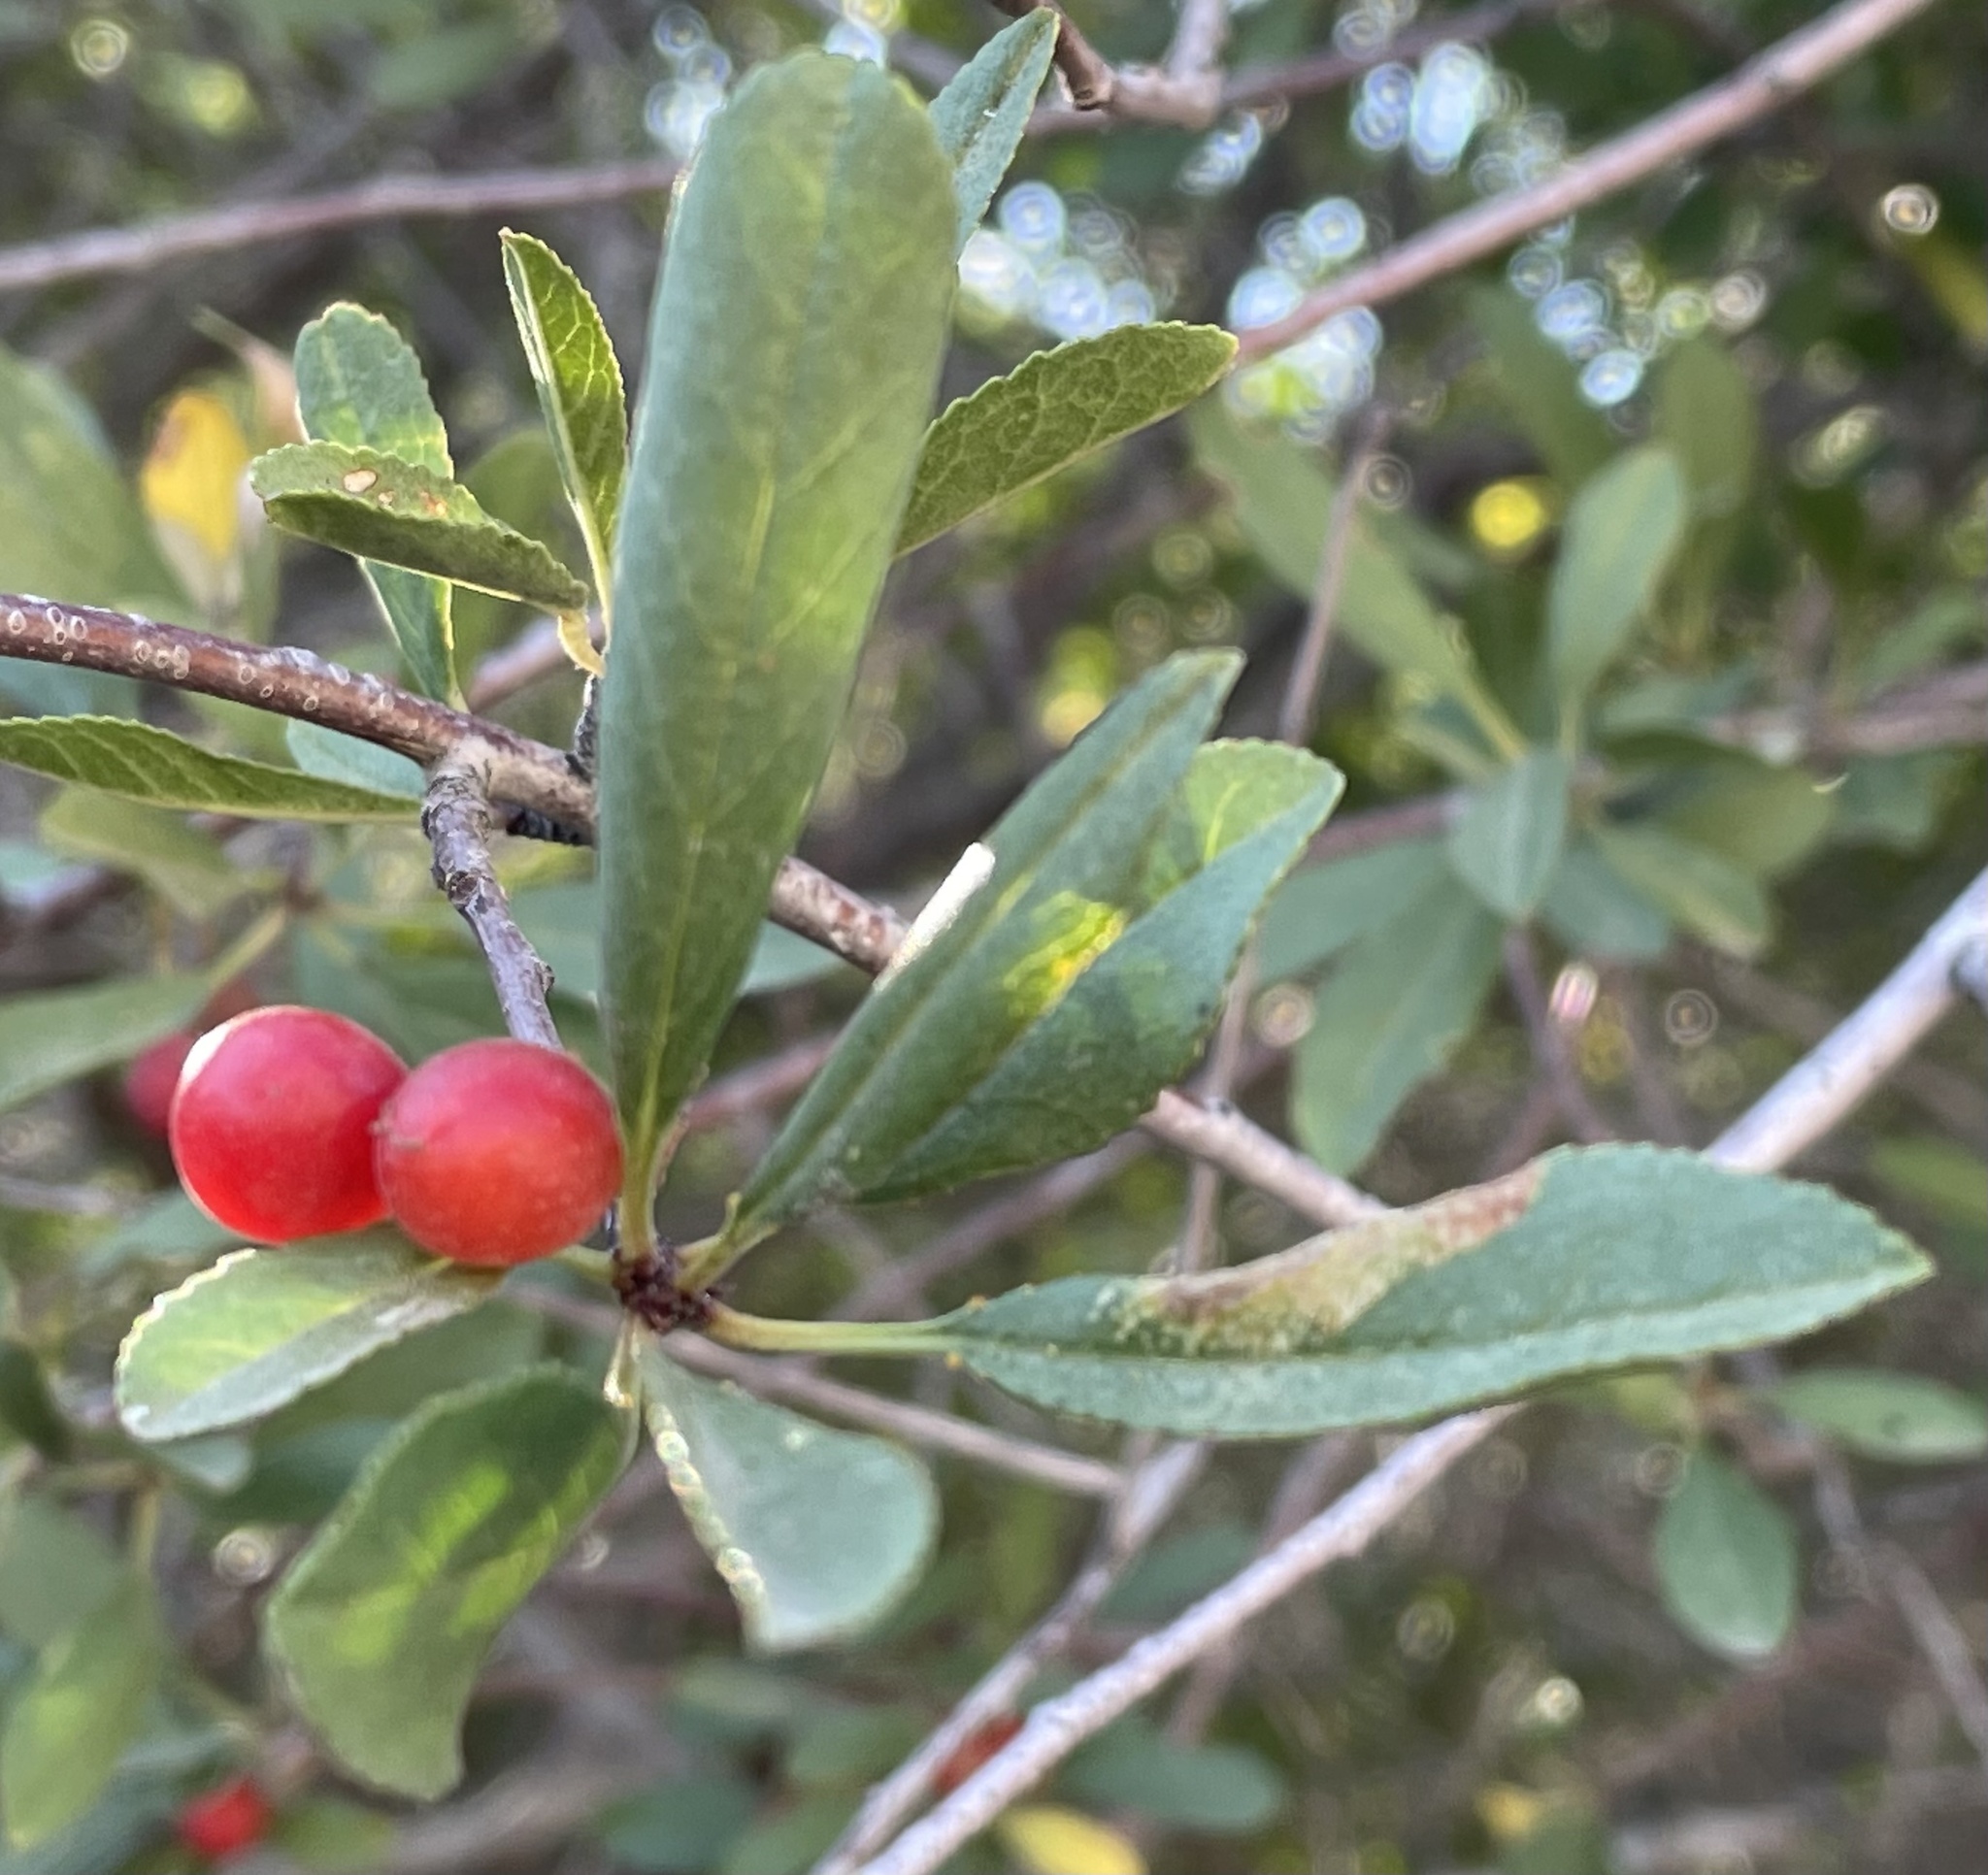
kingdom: Plantae
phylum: Tracheophyta
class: Magnoliopsida
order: Rosales
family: Rosaceae
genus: Prunus
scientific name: Prunus emarginata
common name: Bitter cherry
